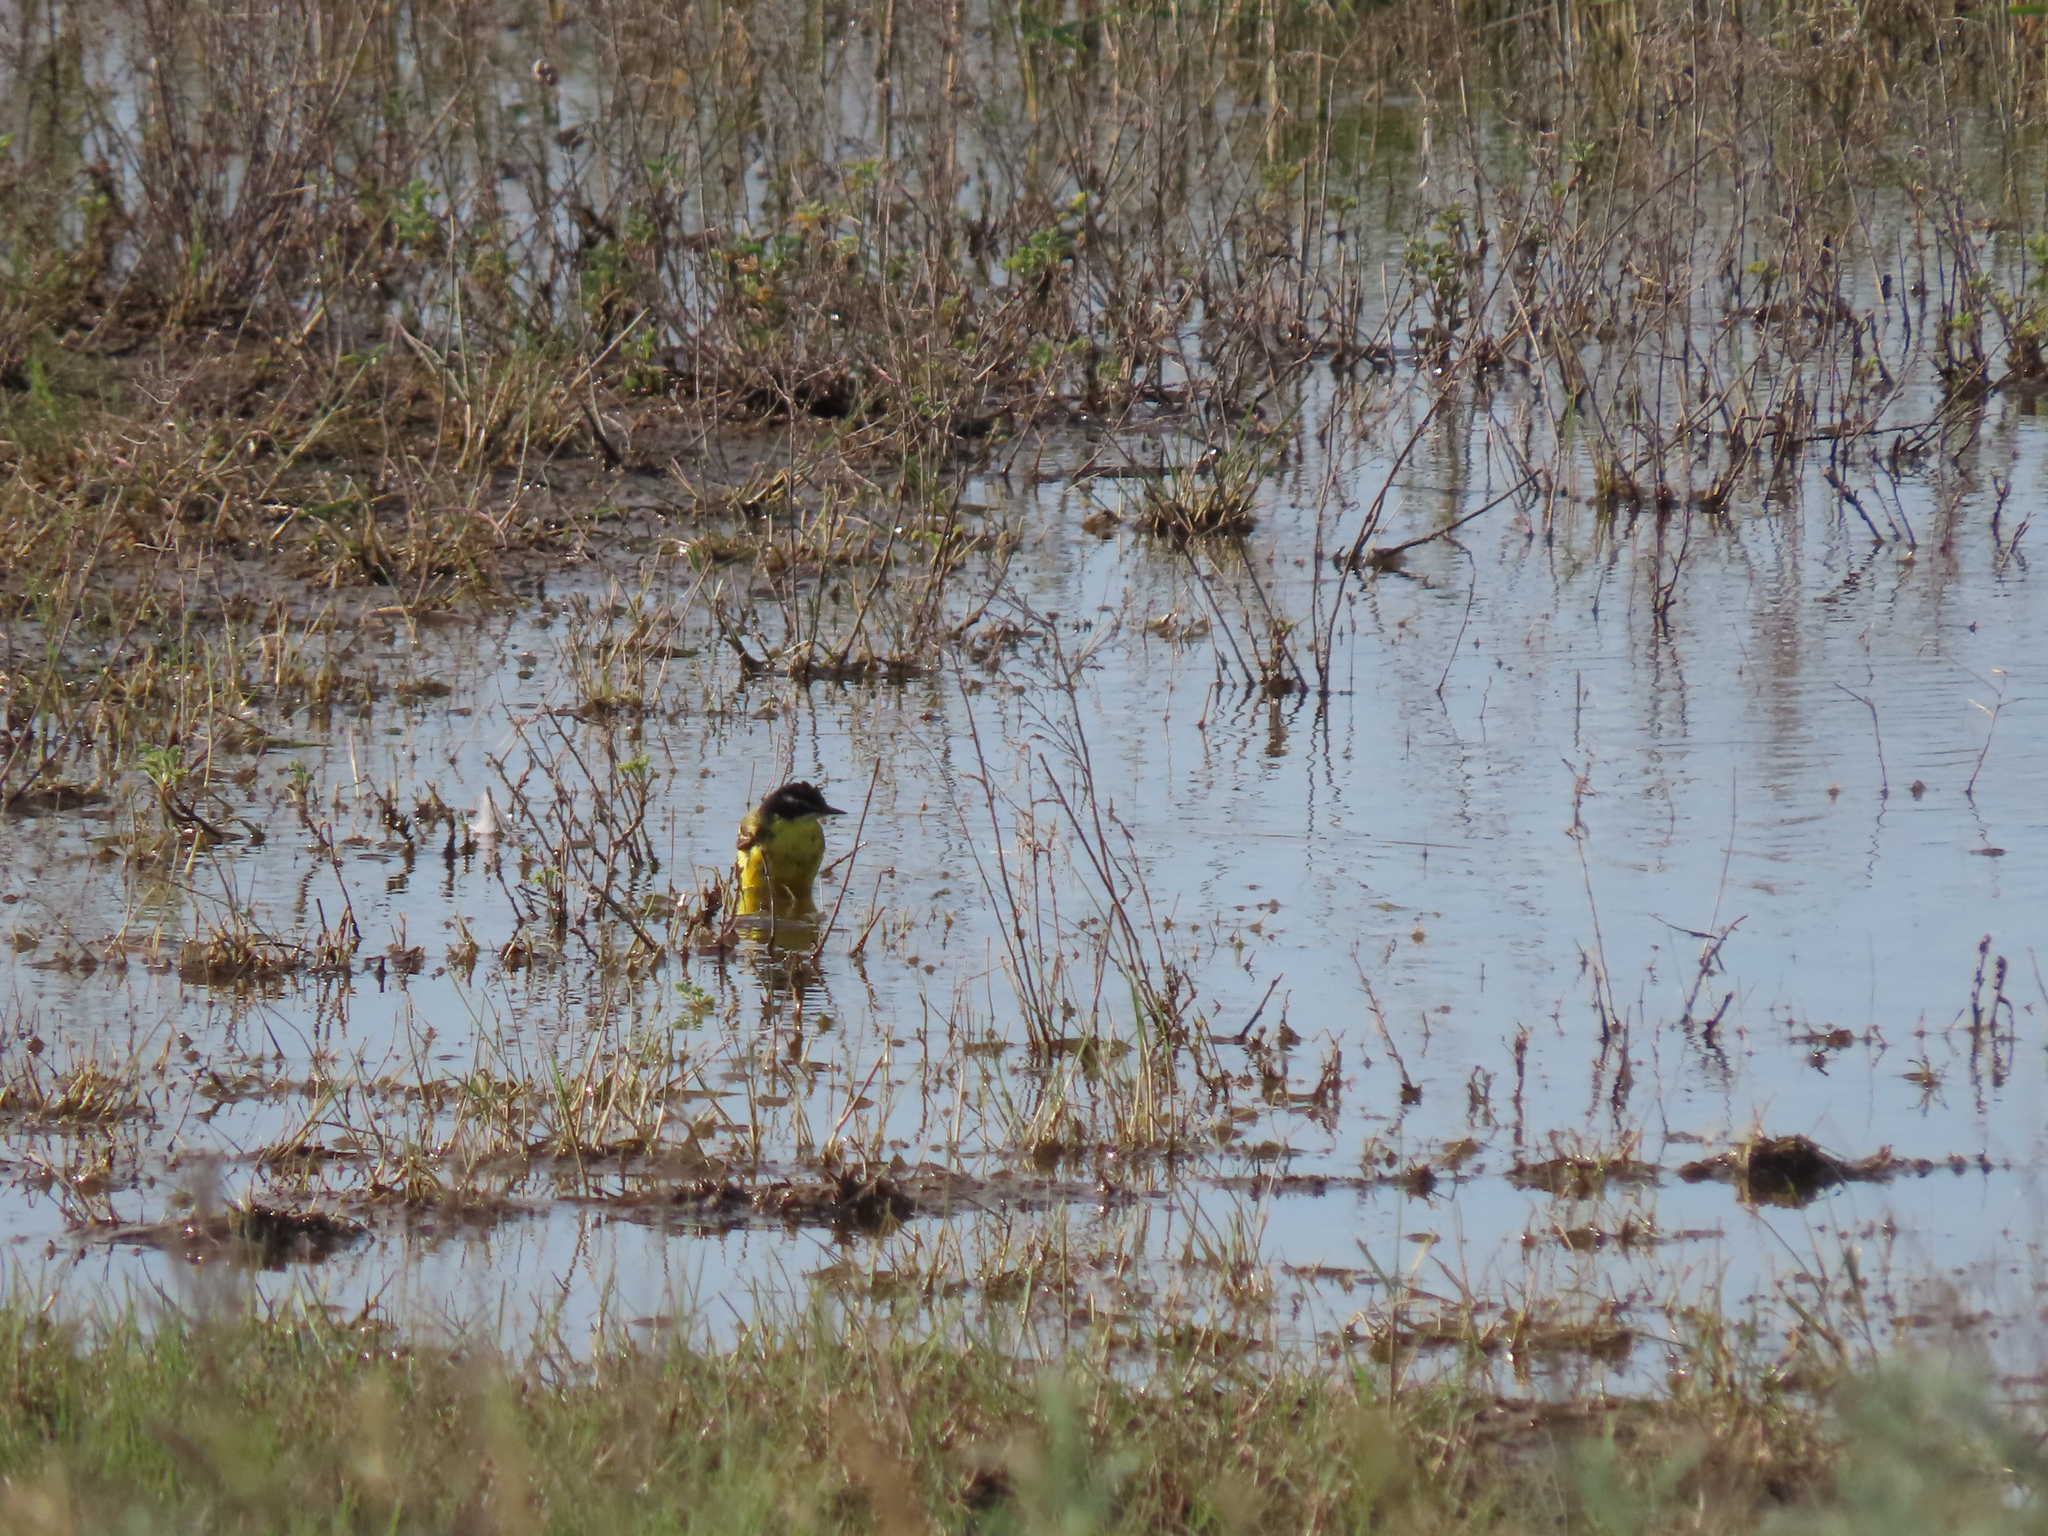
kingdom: Animalia
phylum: Chordata
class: Aves
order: Passeriformes
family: Motacillidae
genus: Motacilla
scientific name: Motacilla flava
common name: Western yellow wagtail
